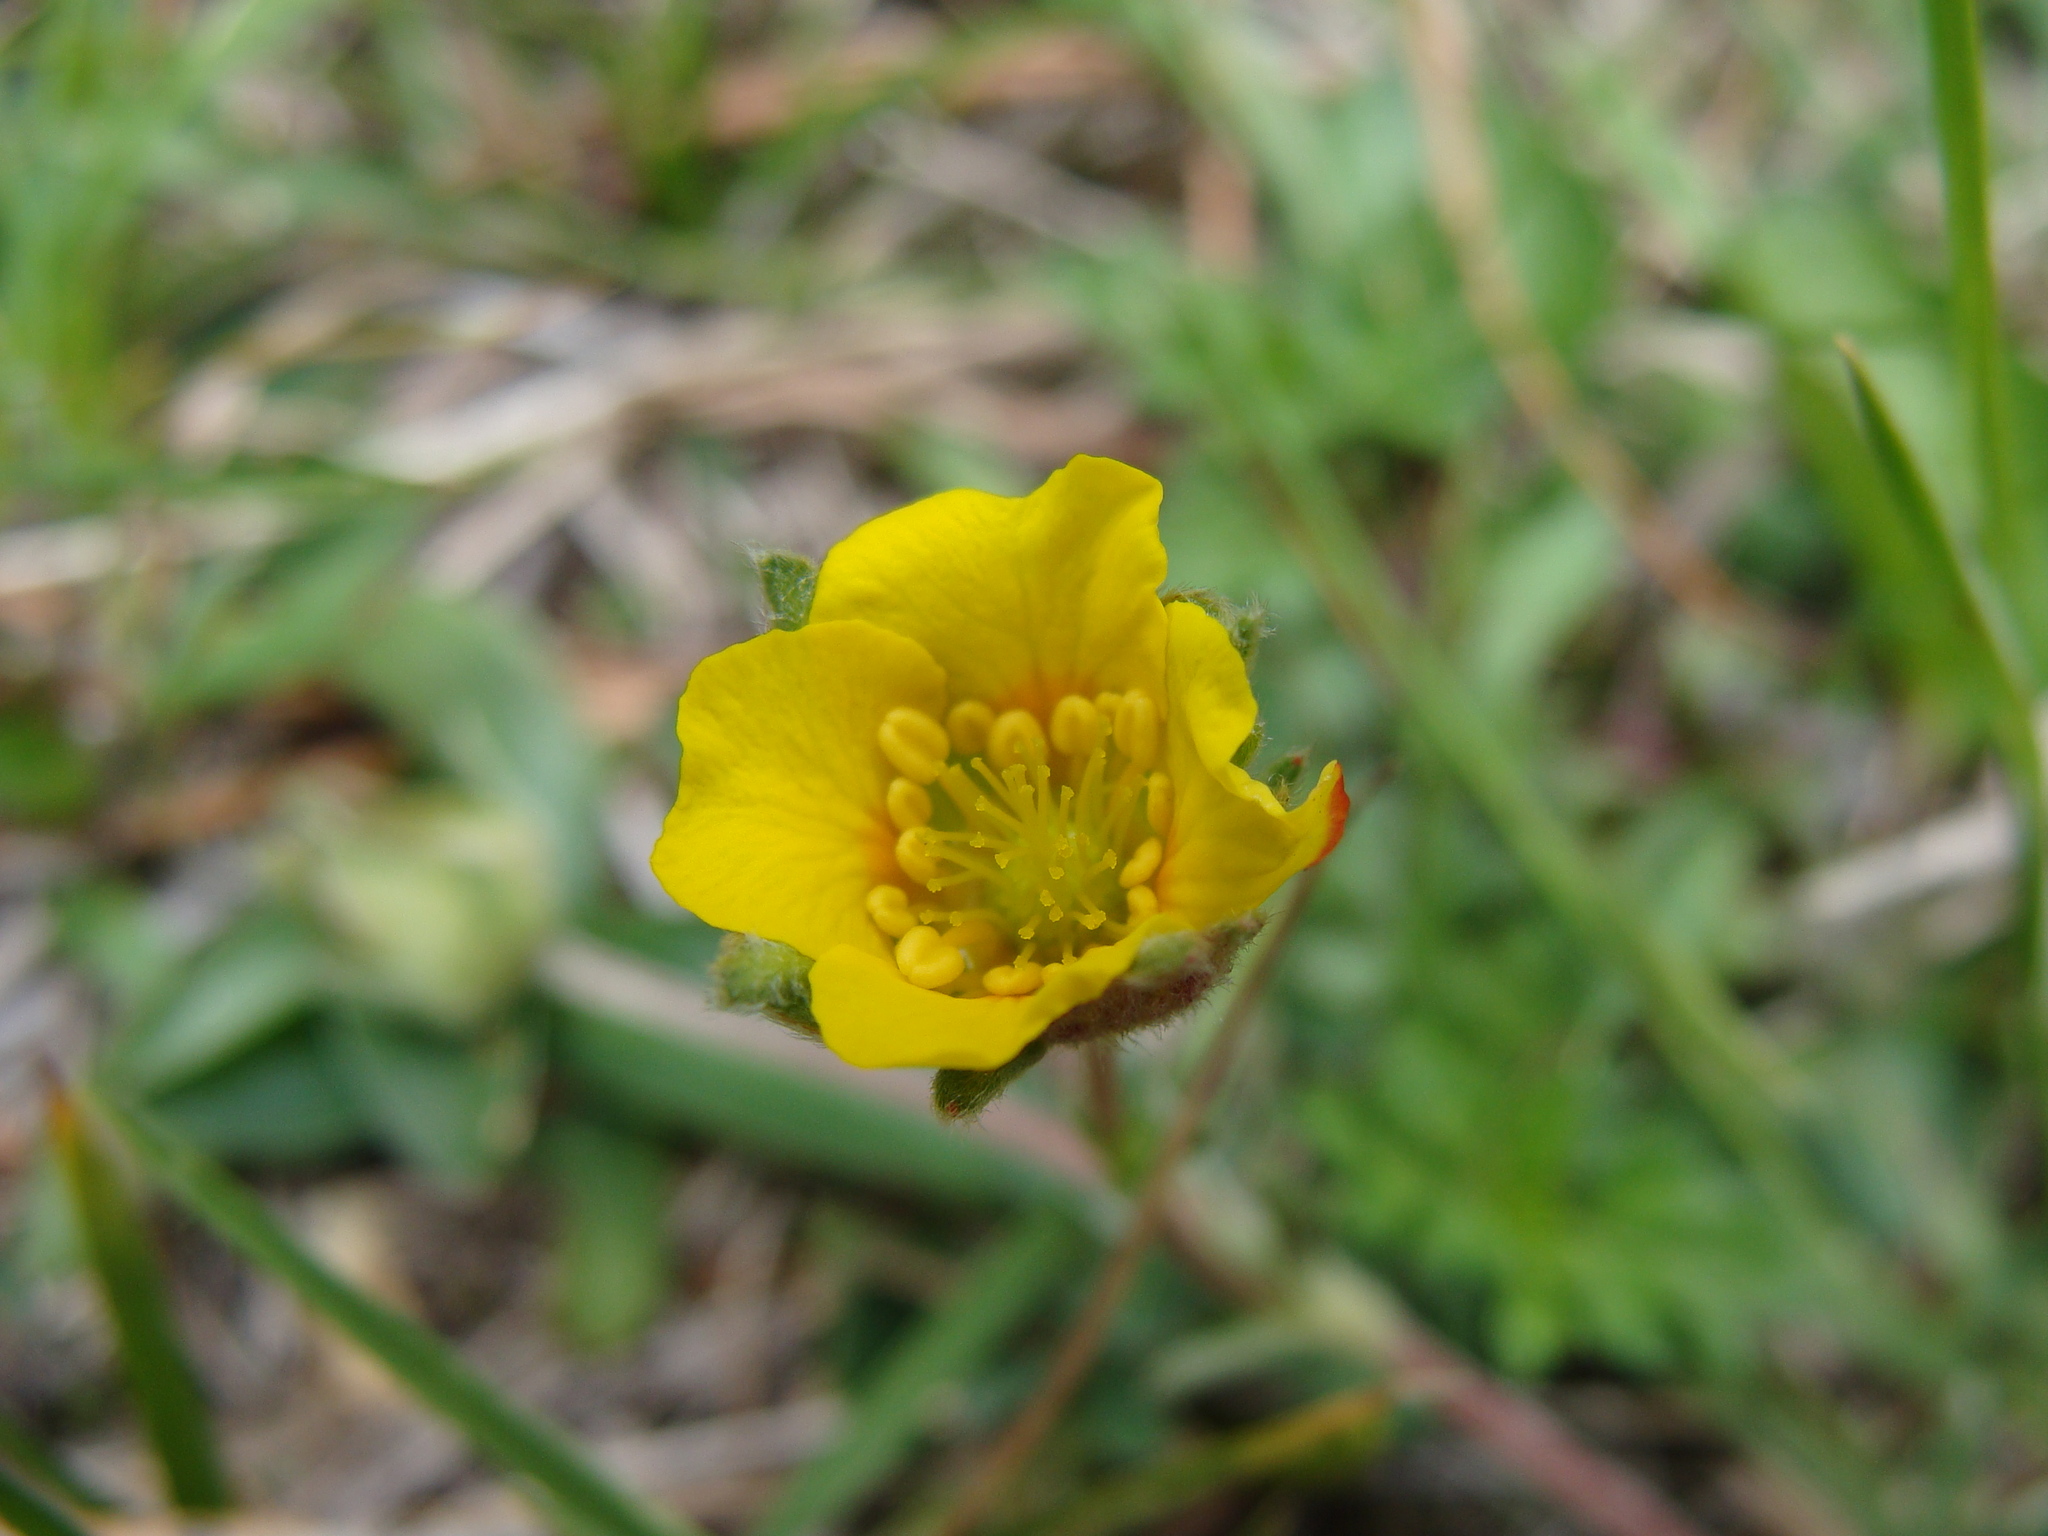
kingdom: Plantae
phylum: Tracheophyta
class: Magnoliopsida
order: Rosales
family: Rosaceae
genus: Potentilla
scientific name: Potentilla candicans
